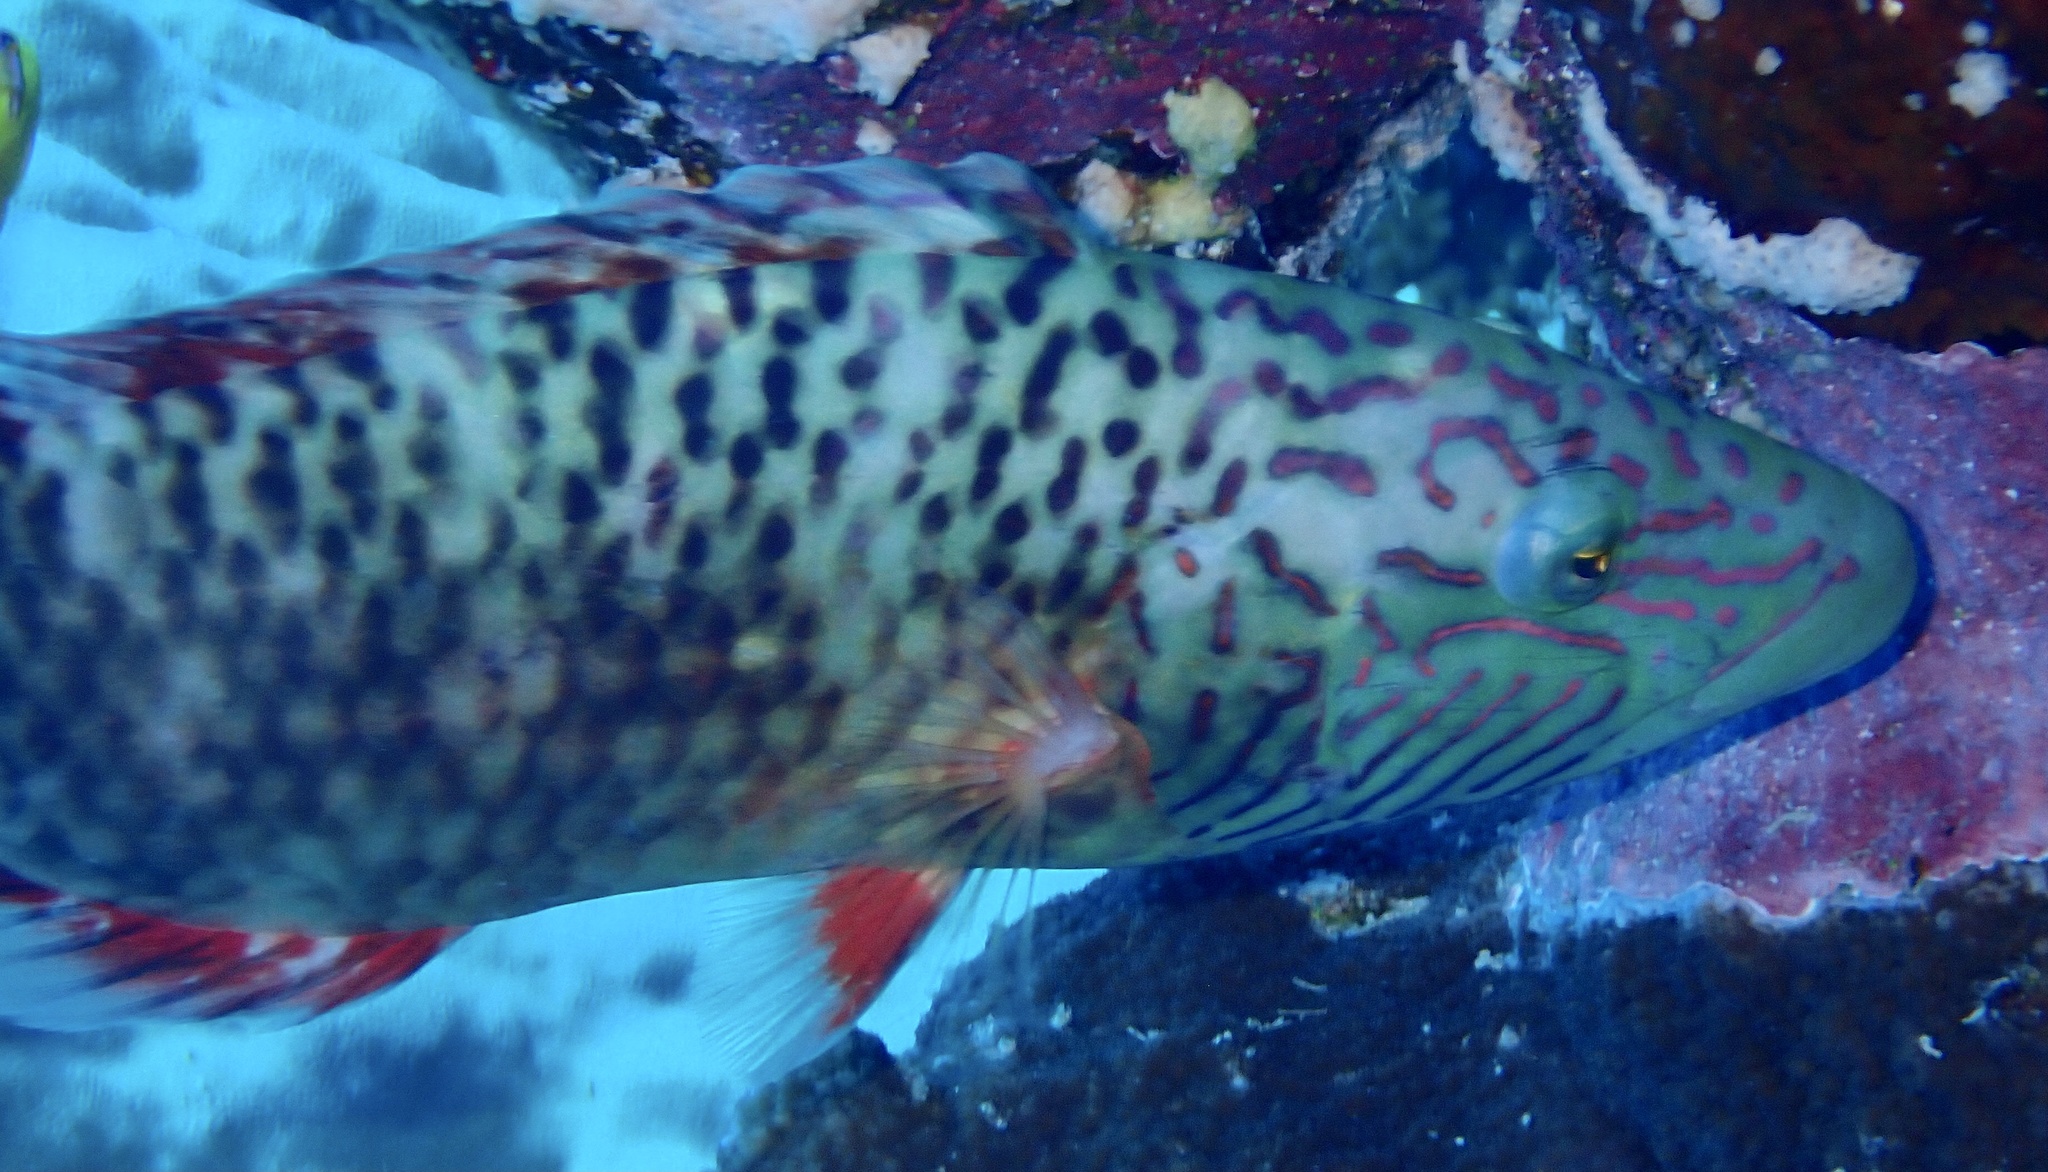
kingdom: Animalia
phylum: Chordata
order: Perciformes
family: Labridae
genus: Oxycheilinus
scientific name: Oxycheilinus digramma
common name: Bandcheek wrasse
